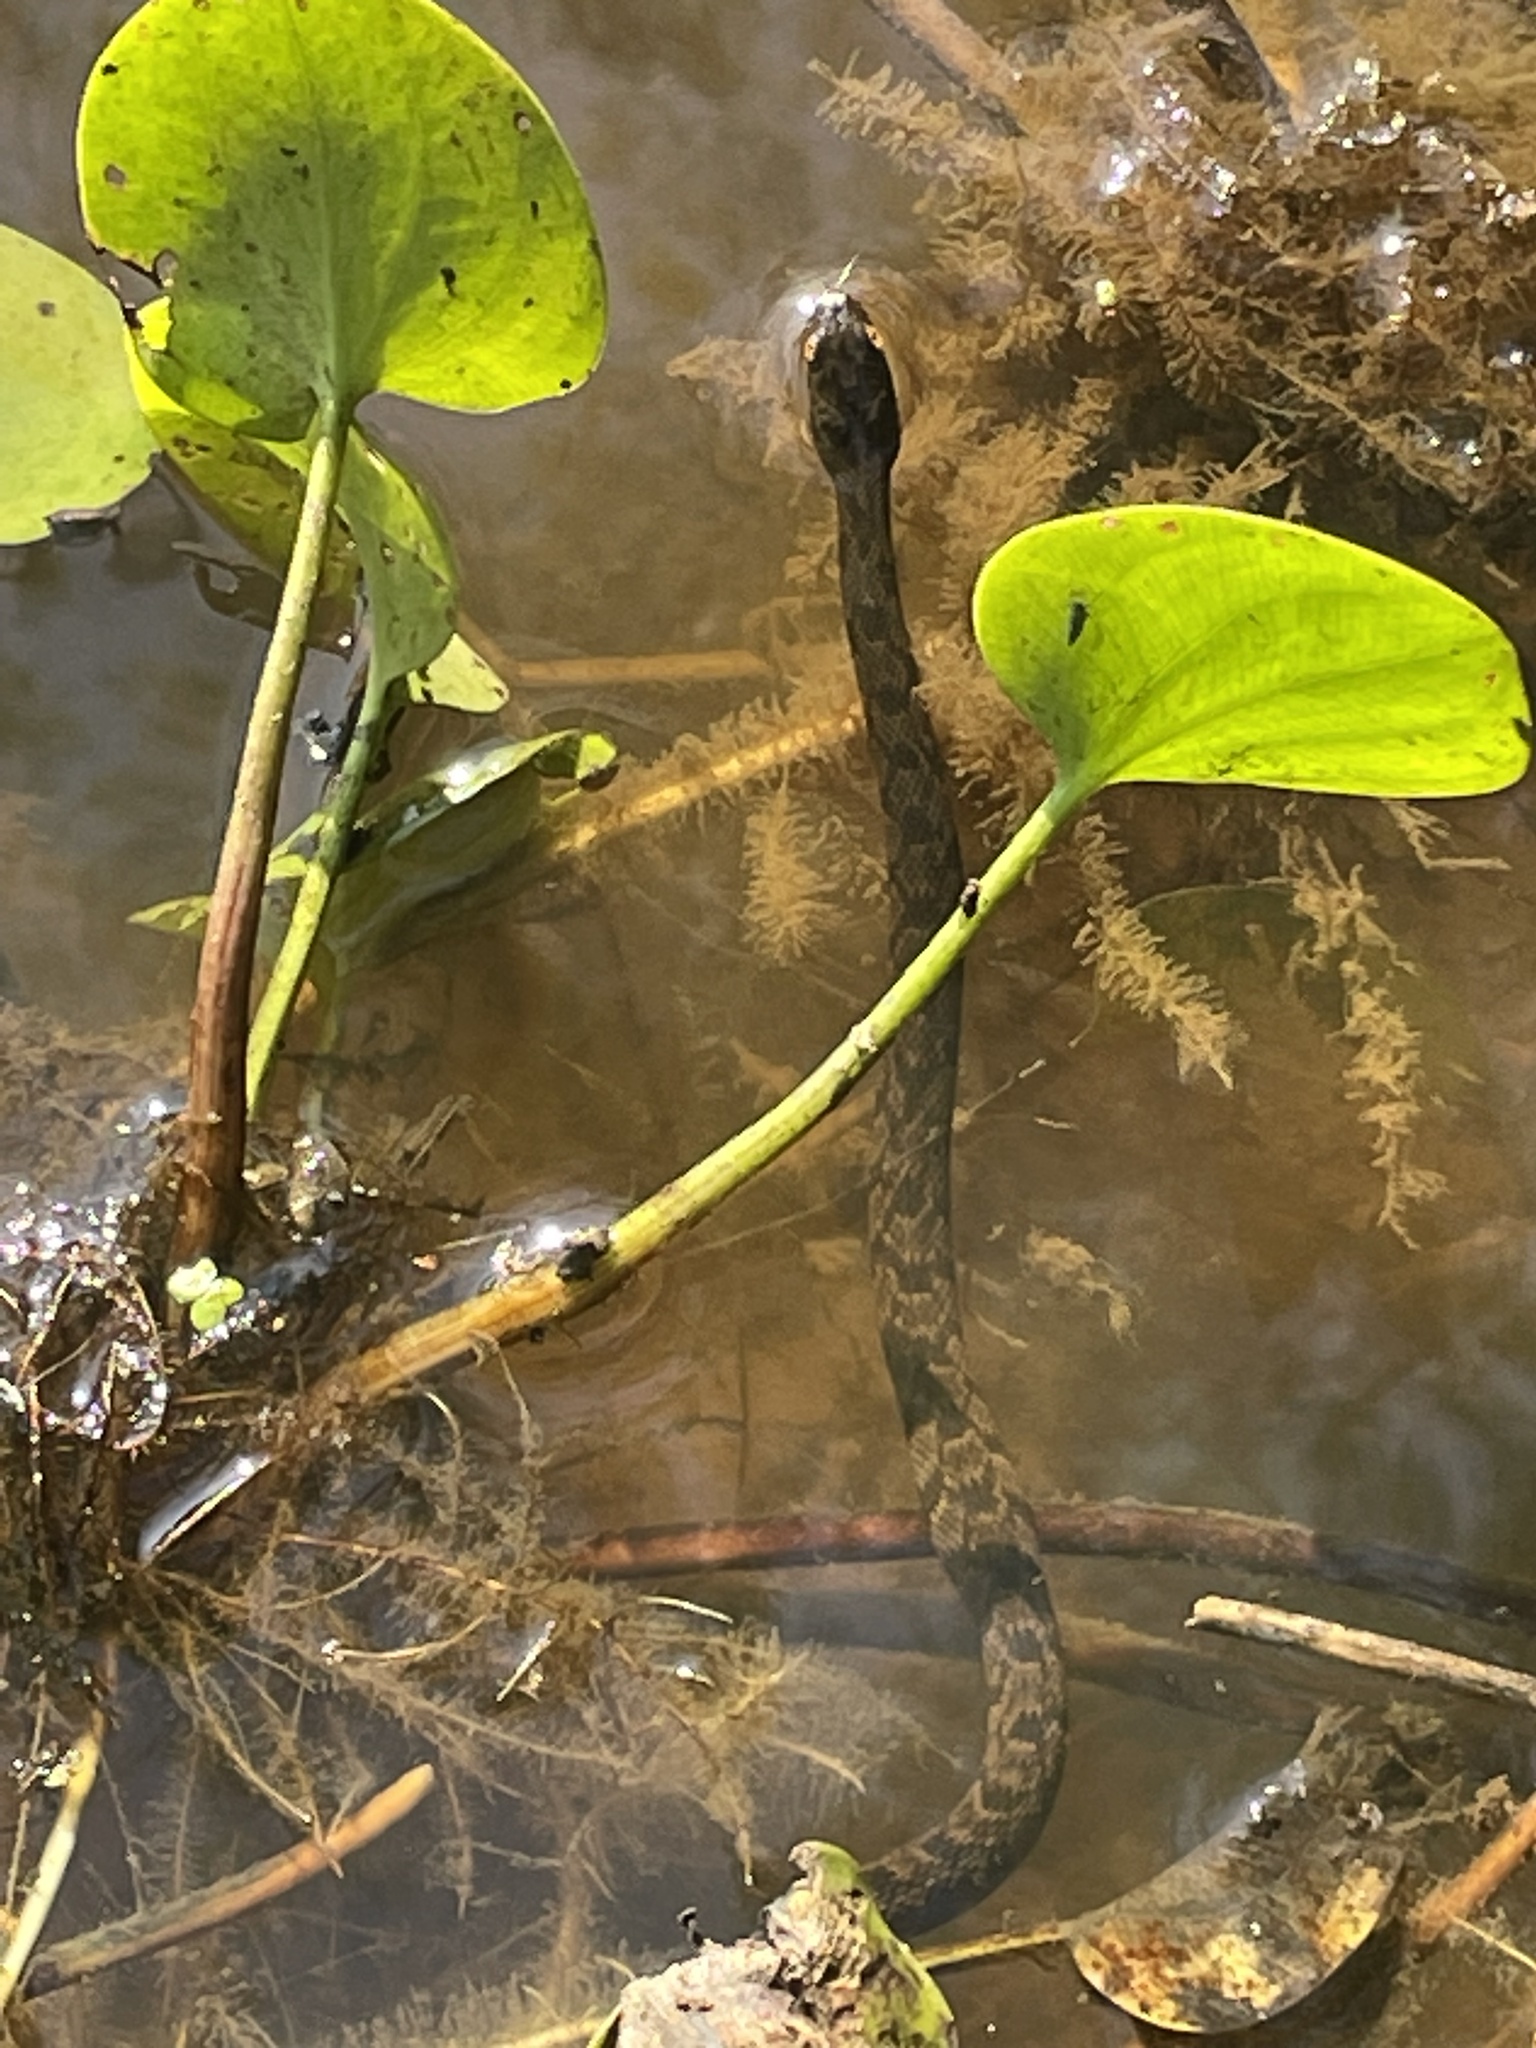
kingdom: Animalia
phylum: Chordata
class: Squamata
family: Colubridae
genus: Nerodia
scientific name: Nerodia rhombifer
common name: Diamondback water snake
